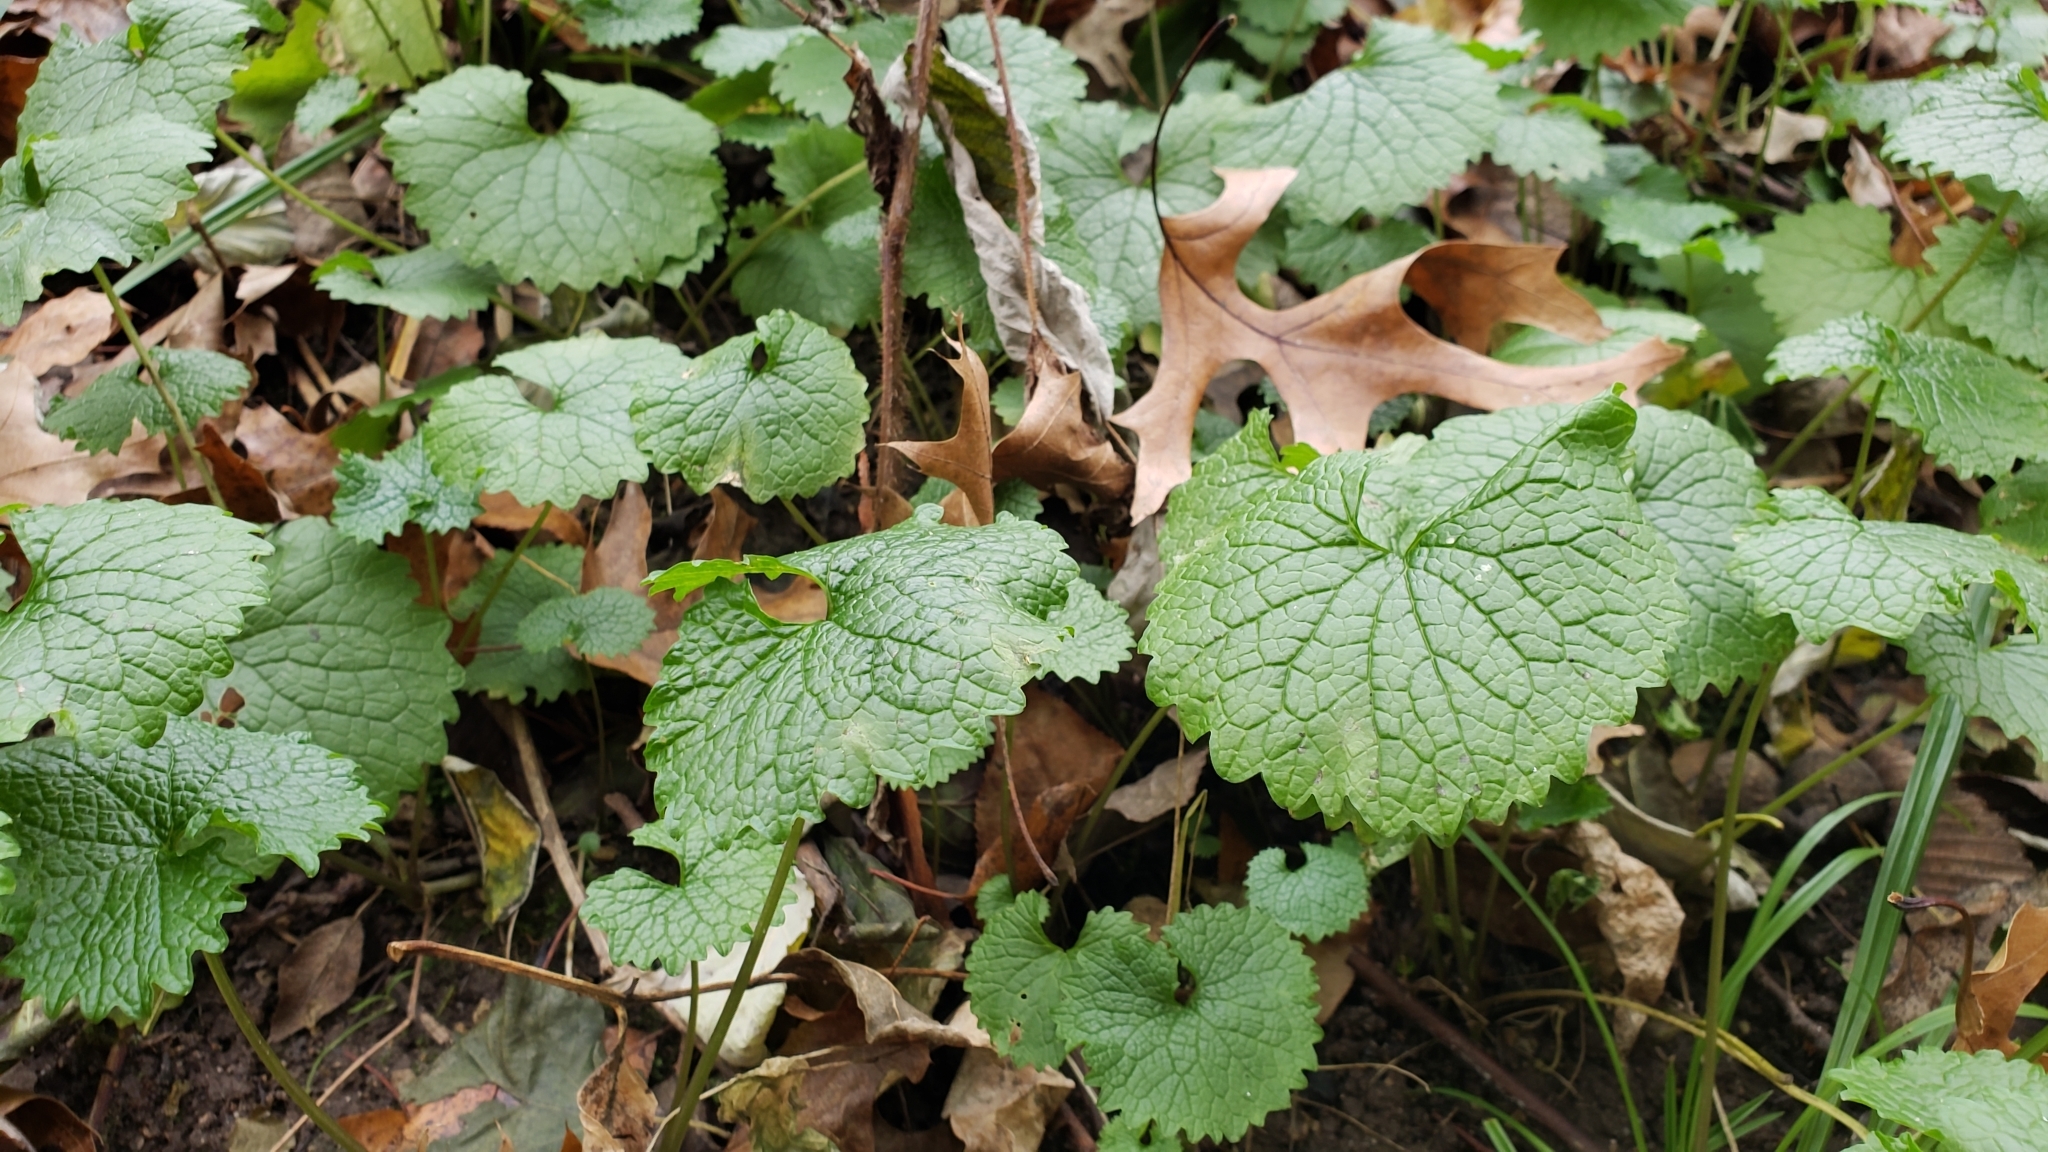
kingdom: Plantae
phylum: Tracheophyta
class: Magnoliopsida
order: Brassicales
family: Brassicaceae
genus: Alliaria
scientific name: Alliaria petiolata
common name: Garlic mustard
